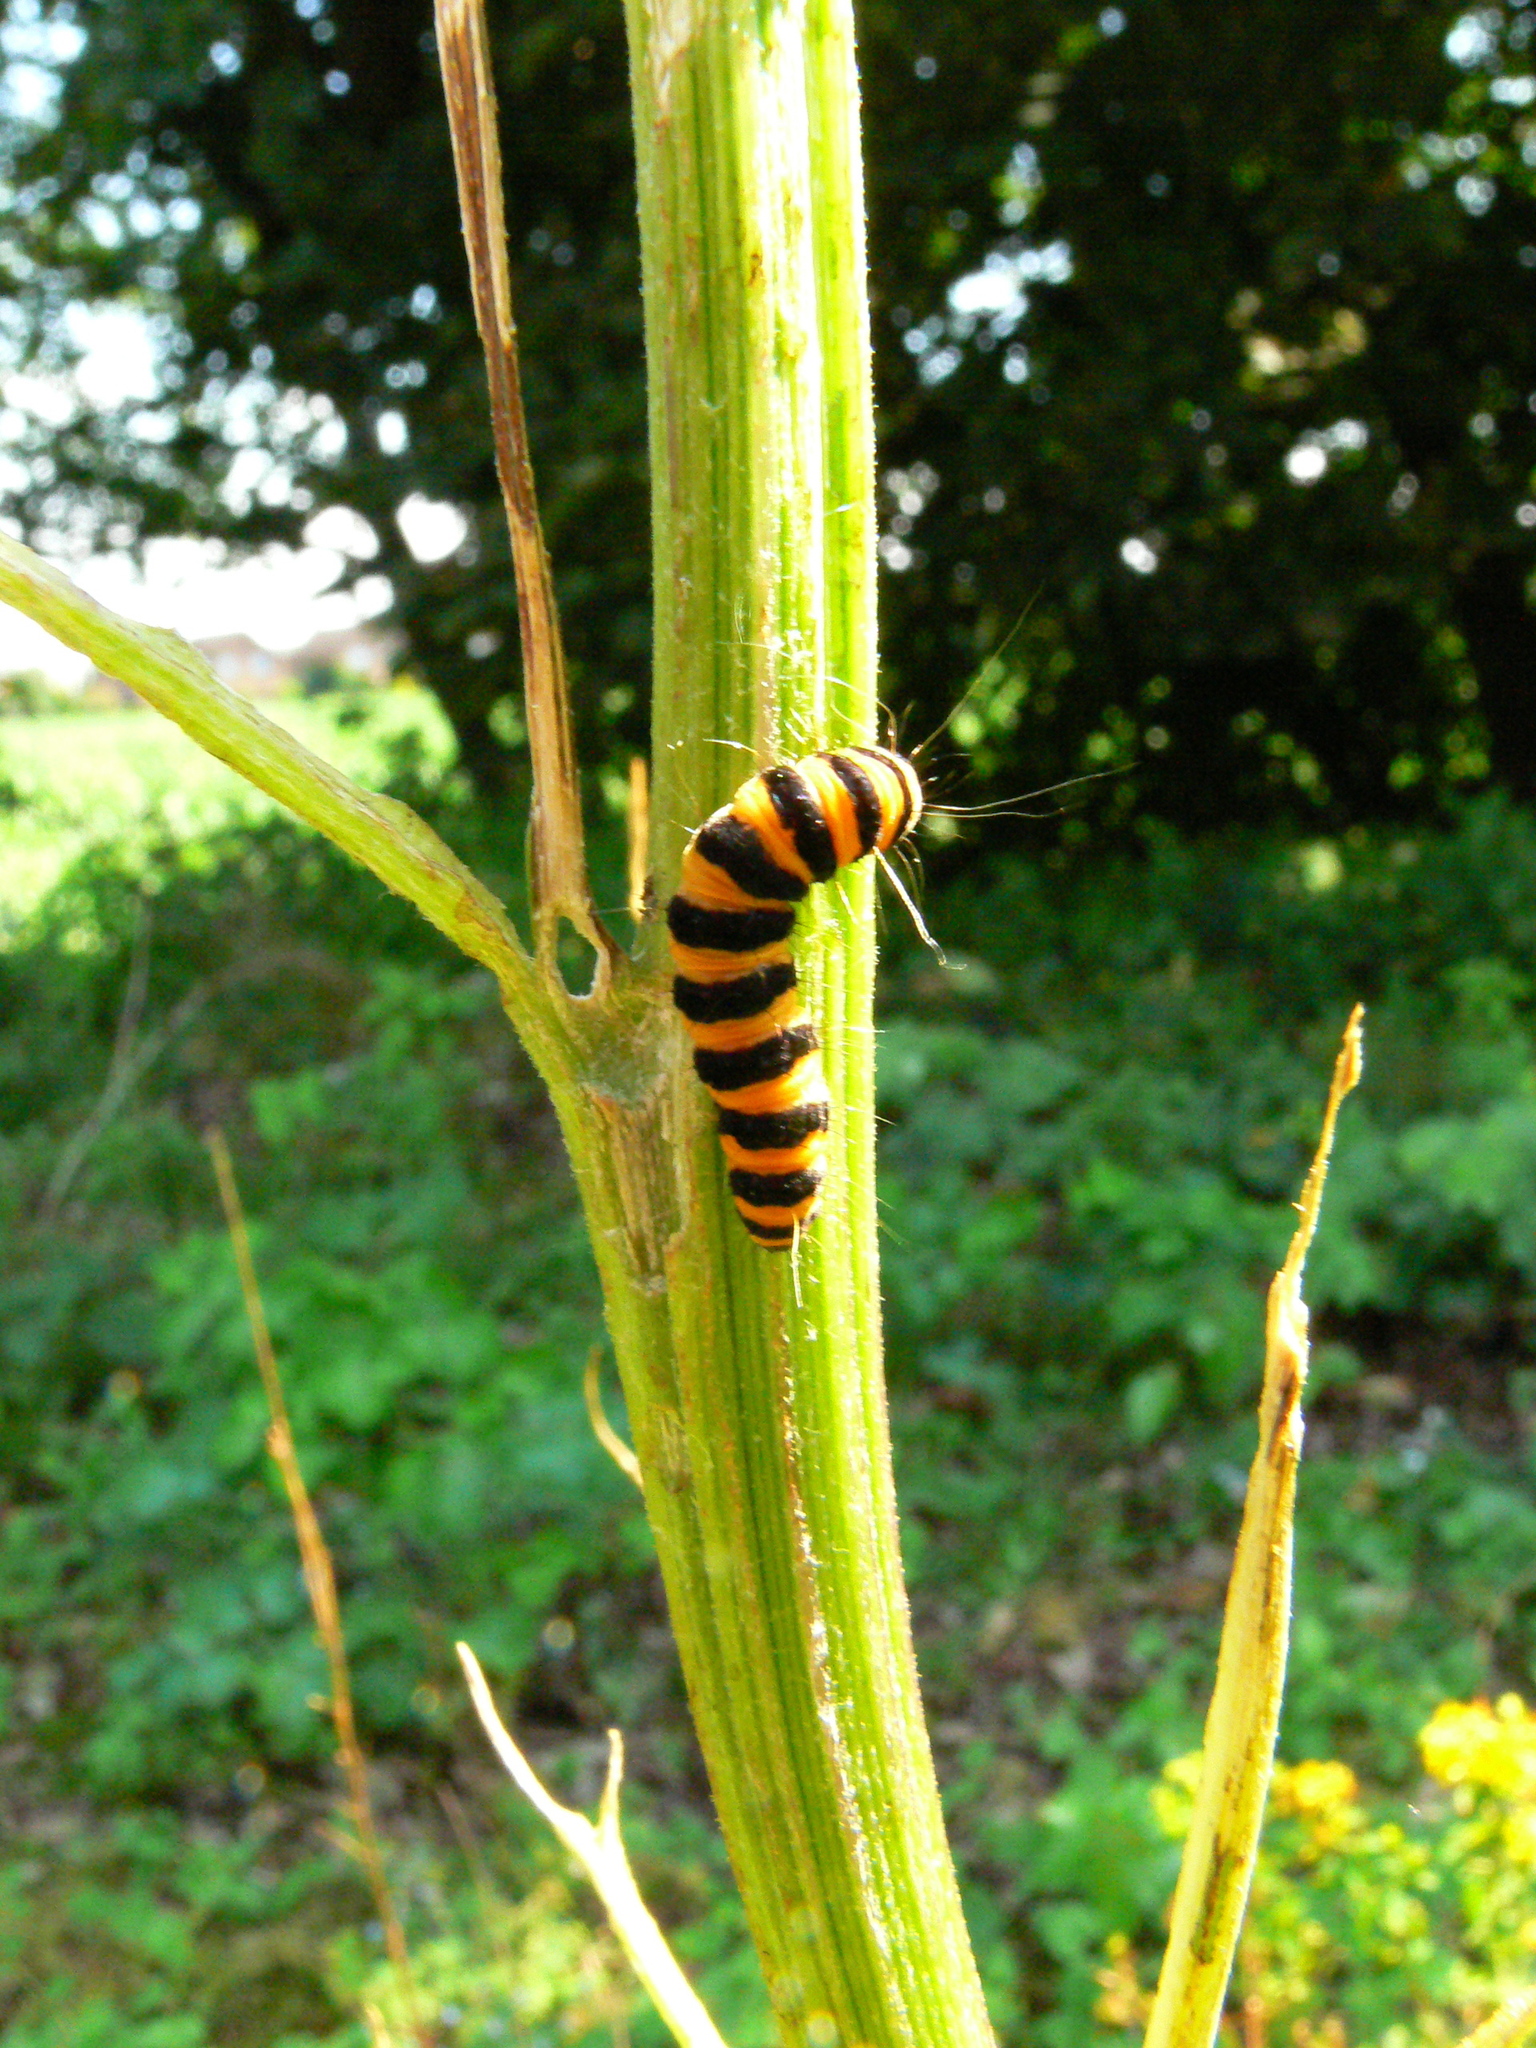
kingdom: Animalia
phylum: Arthropoda
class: Insecta
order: Lepidoptera
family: Erebidae
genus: Tyria
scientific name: Tyria jacobaeae
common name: Cinnabar
